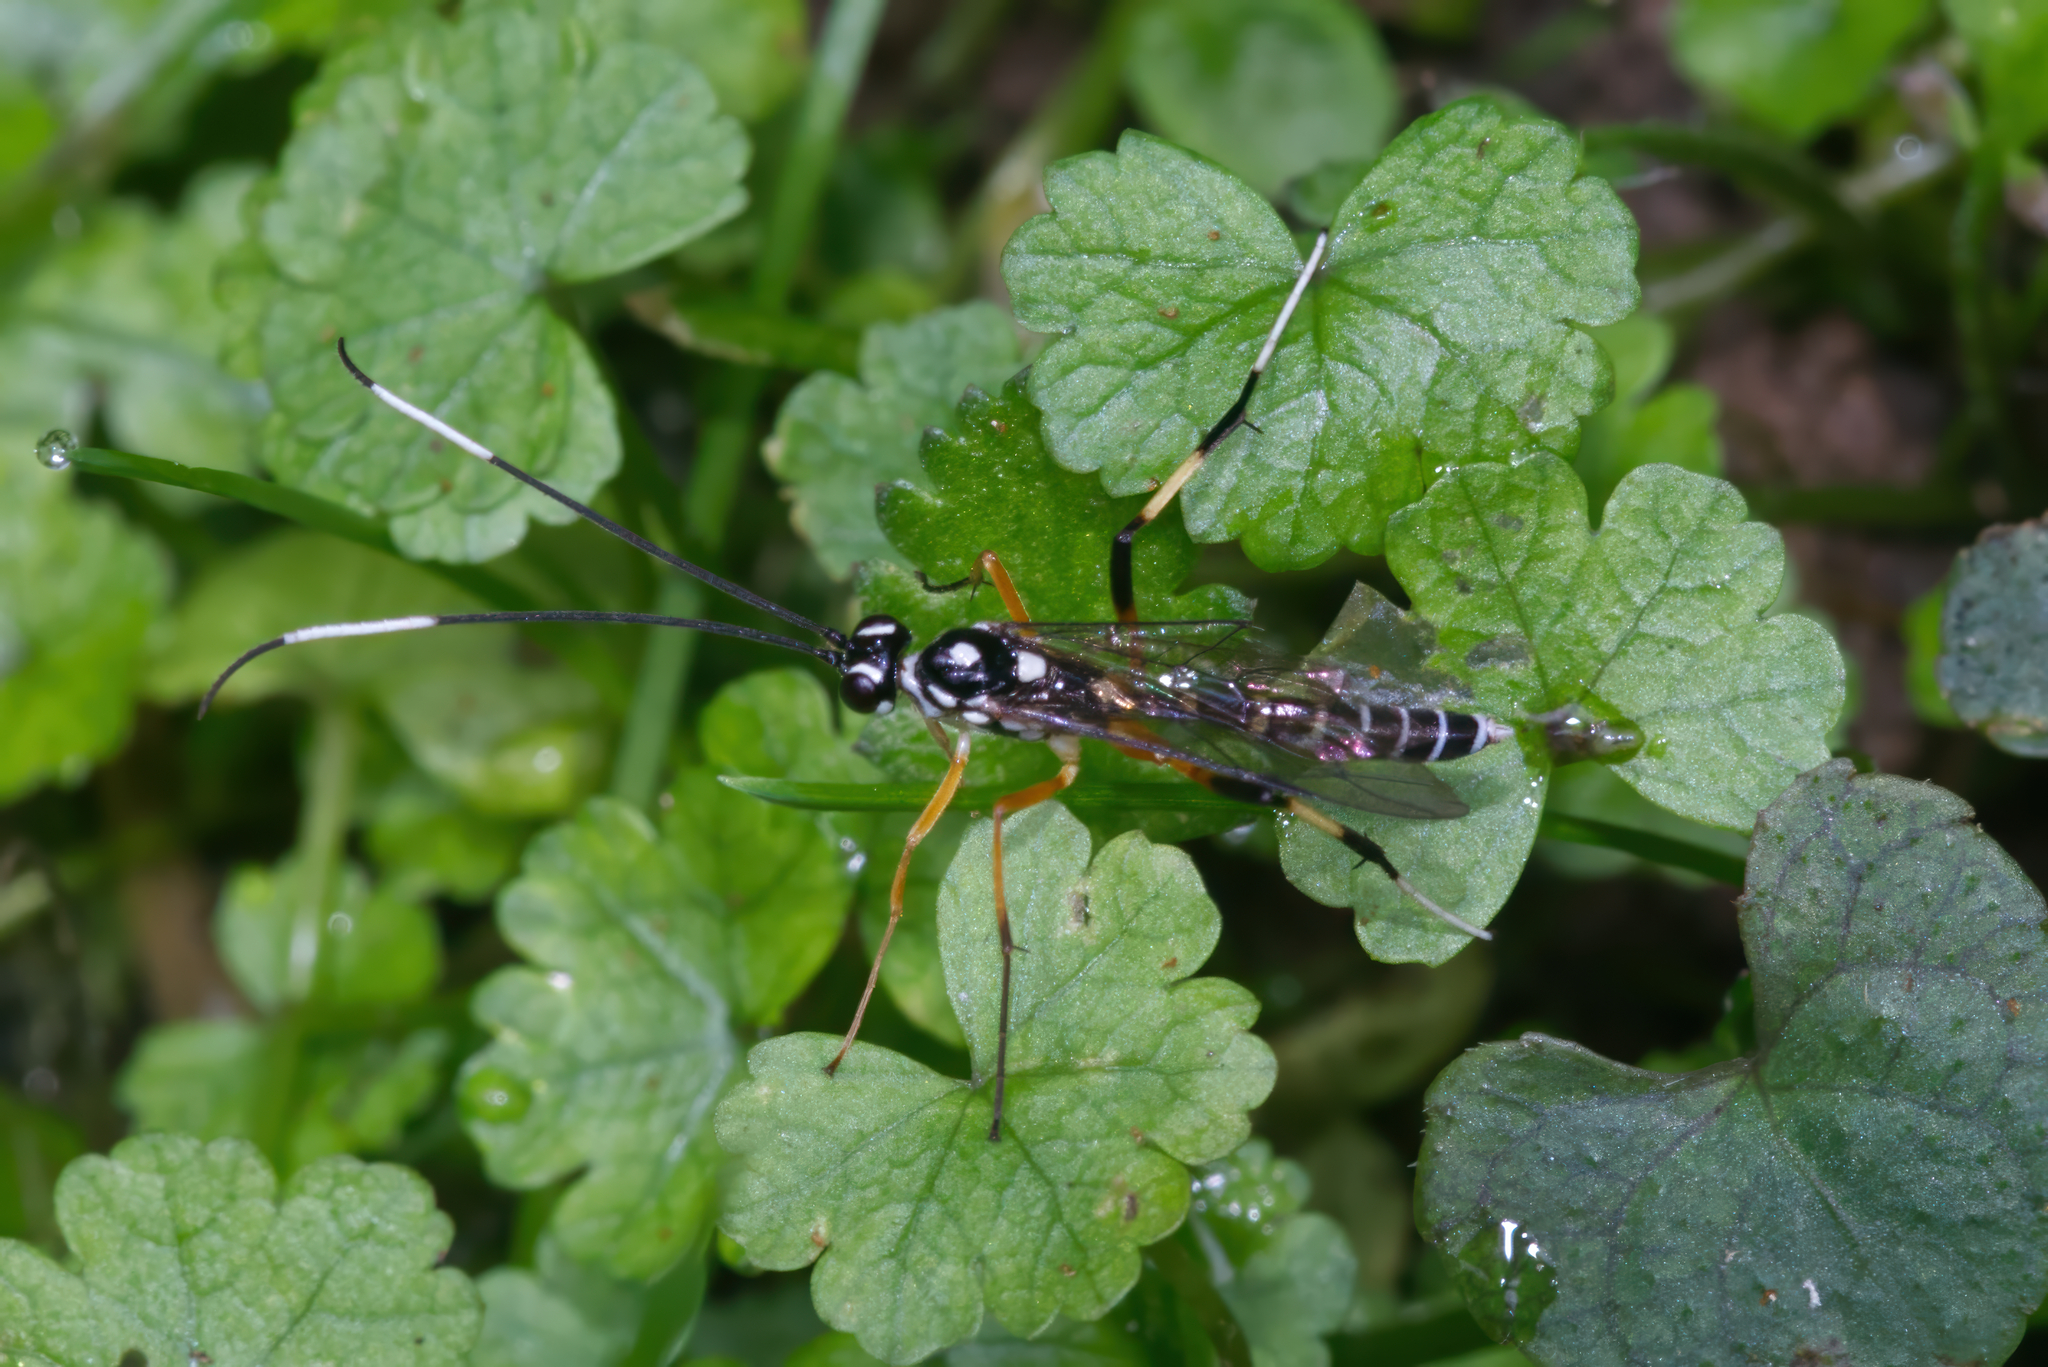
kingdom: Animalia
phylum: Arthropoda
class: Insecta
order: Hymenoptera
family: Ichneumonidae
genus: Xanthocryptus
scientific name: Xanthocryptus novozealandicus
